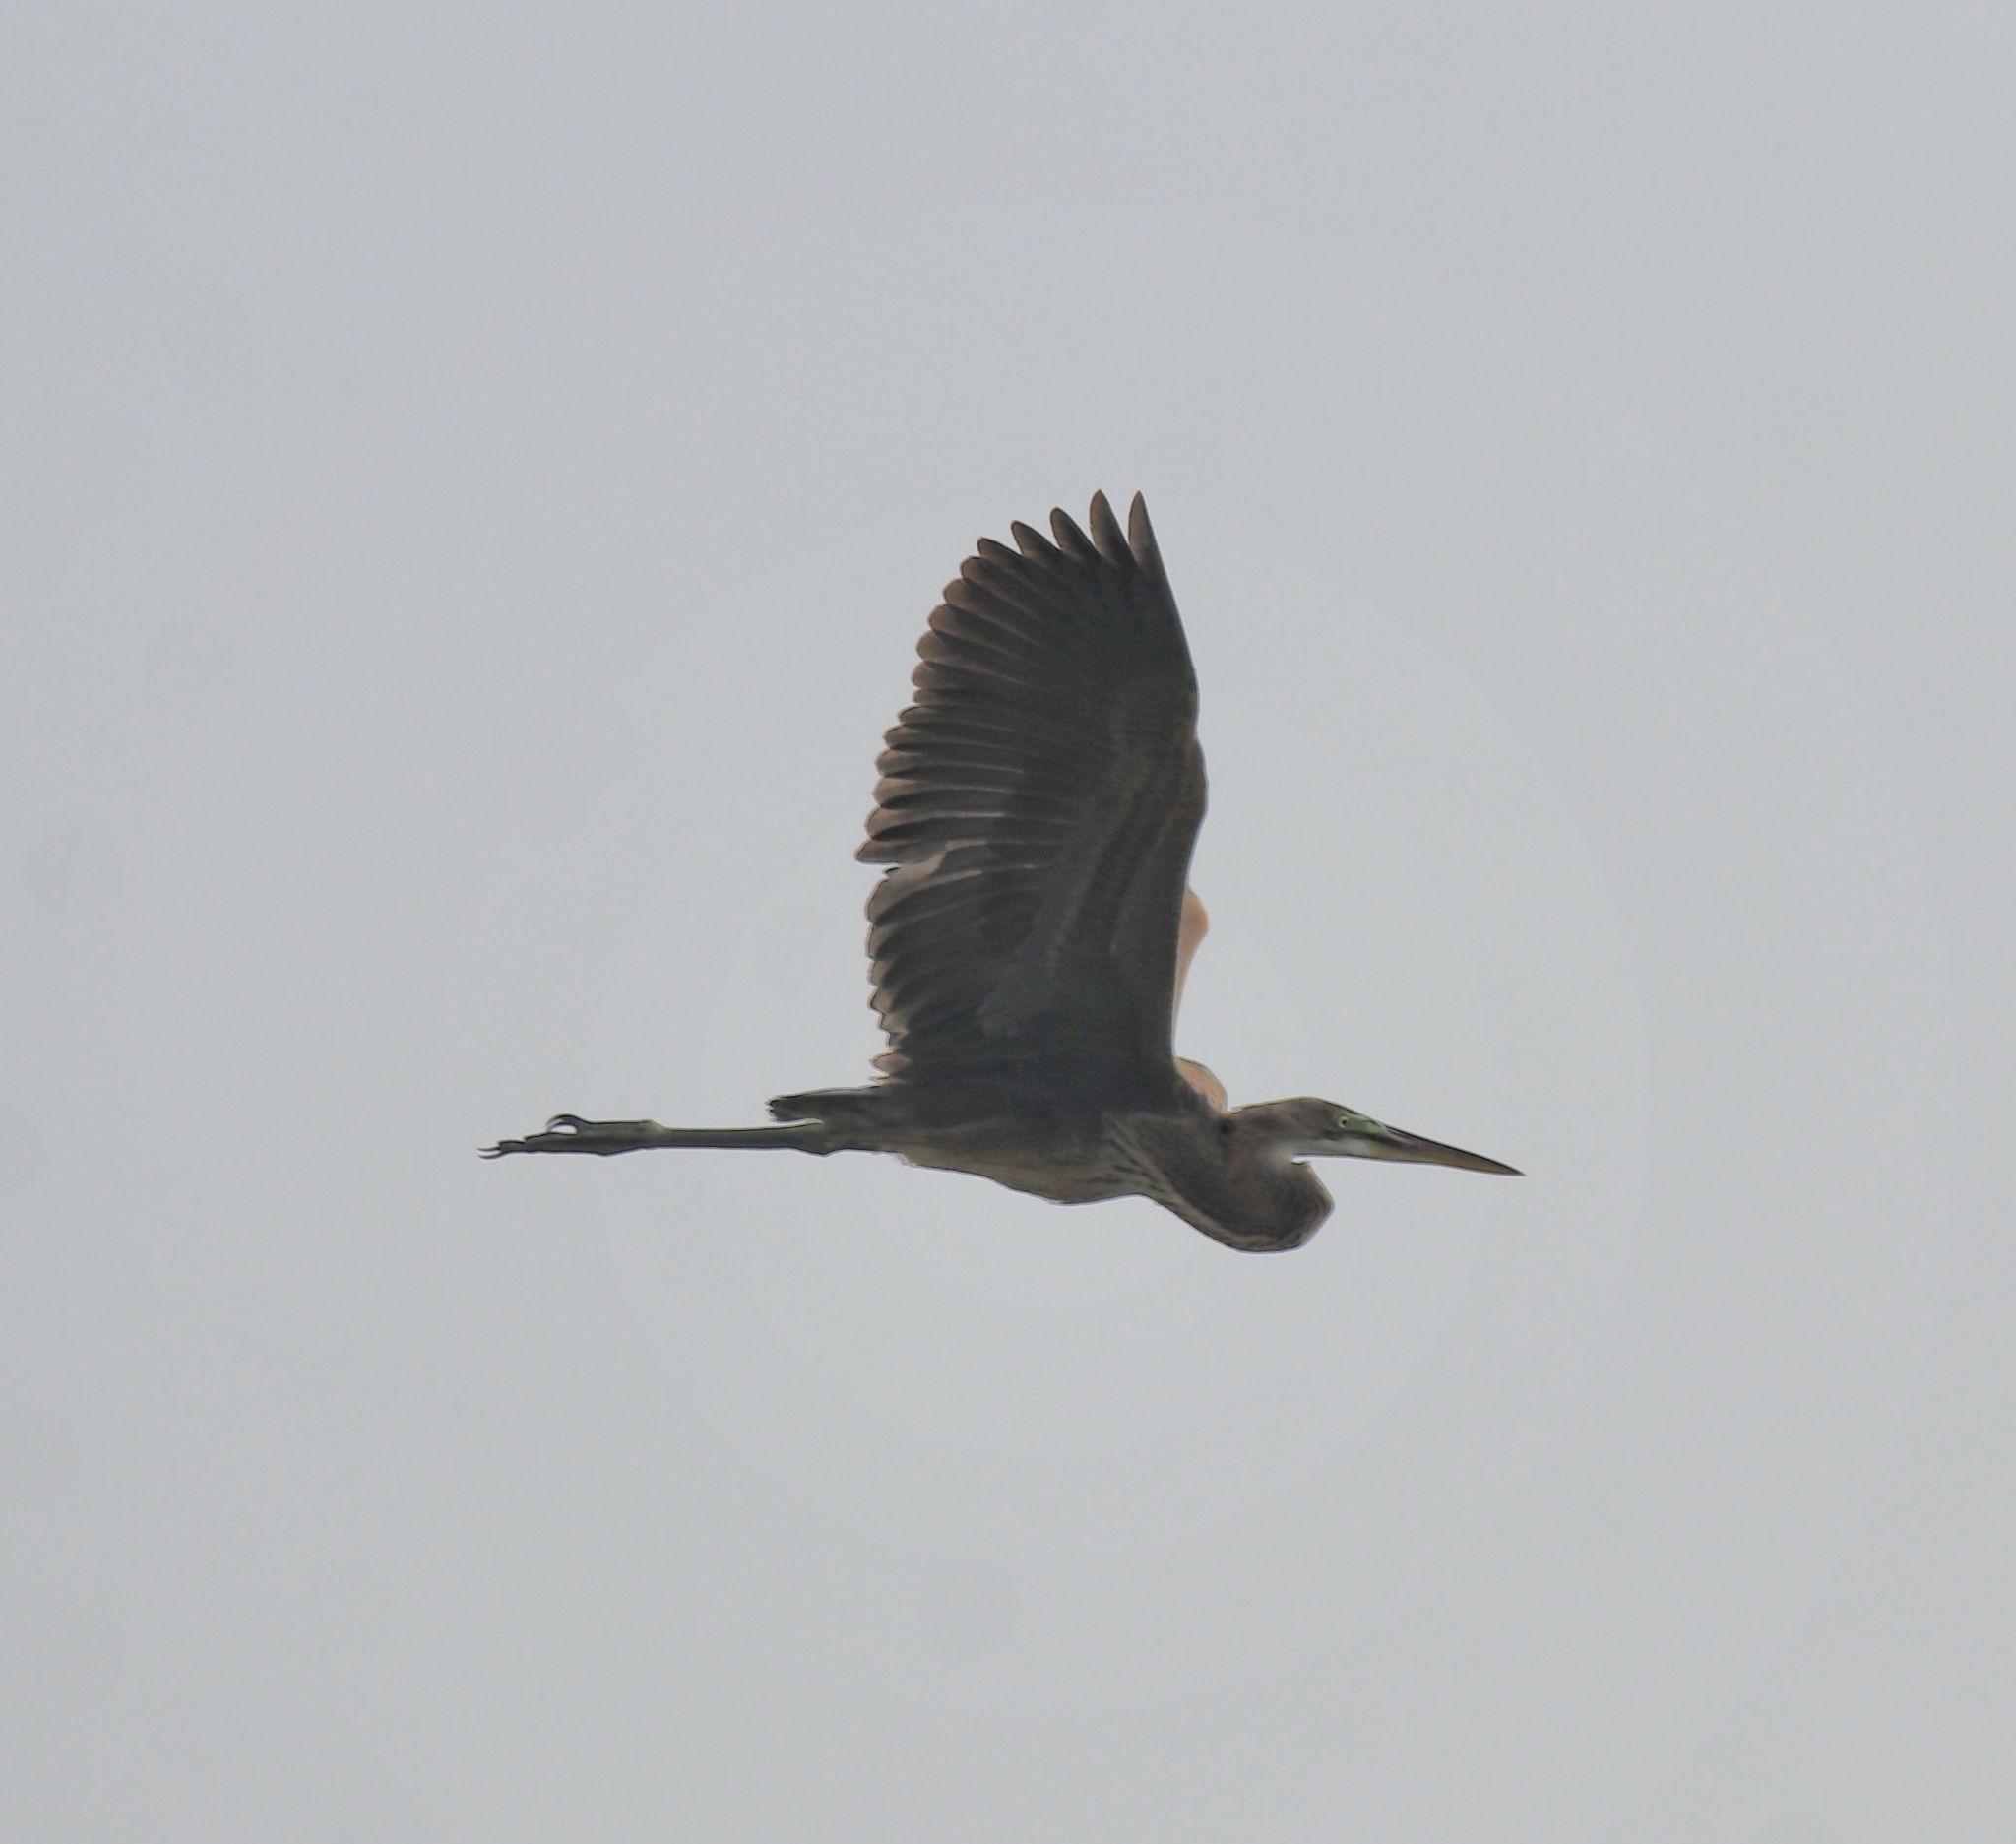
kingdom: Animalia
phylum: Chordata
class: Aves
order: Pelecaniformes
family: Ardeidae
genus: Ardea
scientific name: Ardea purpurea
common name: Purple heron
